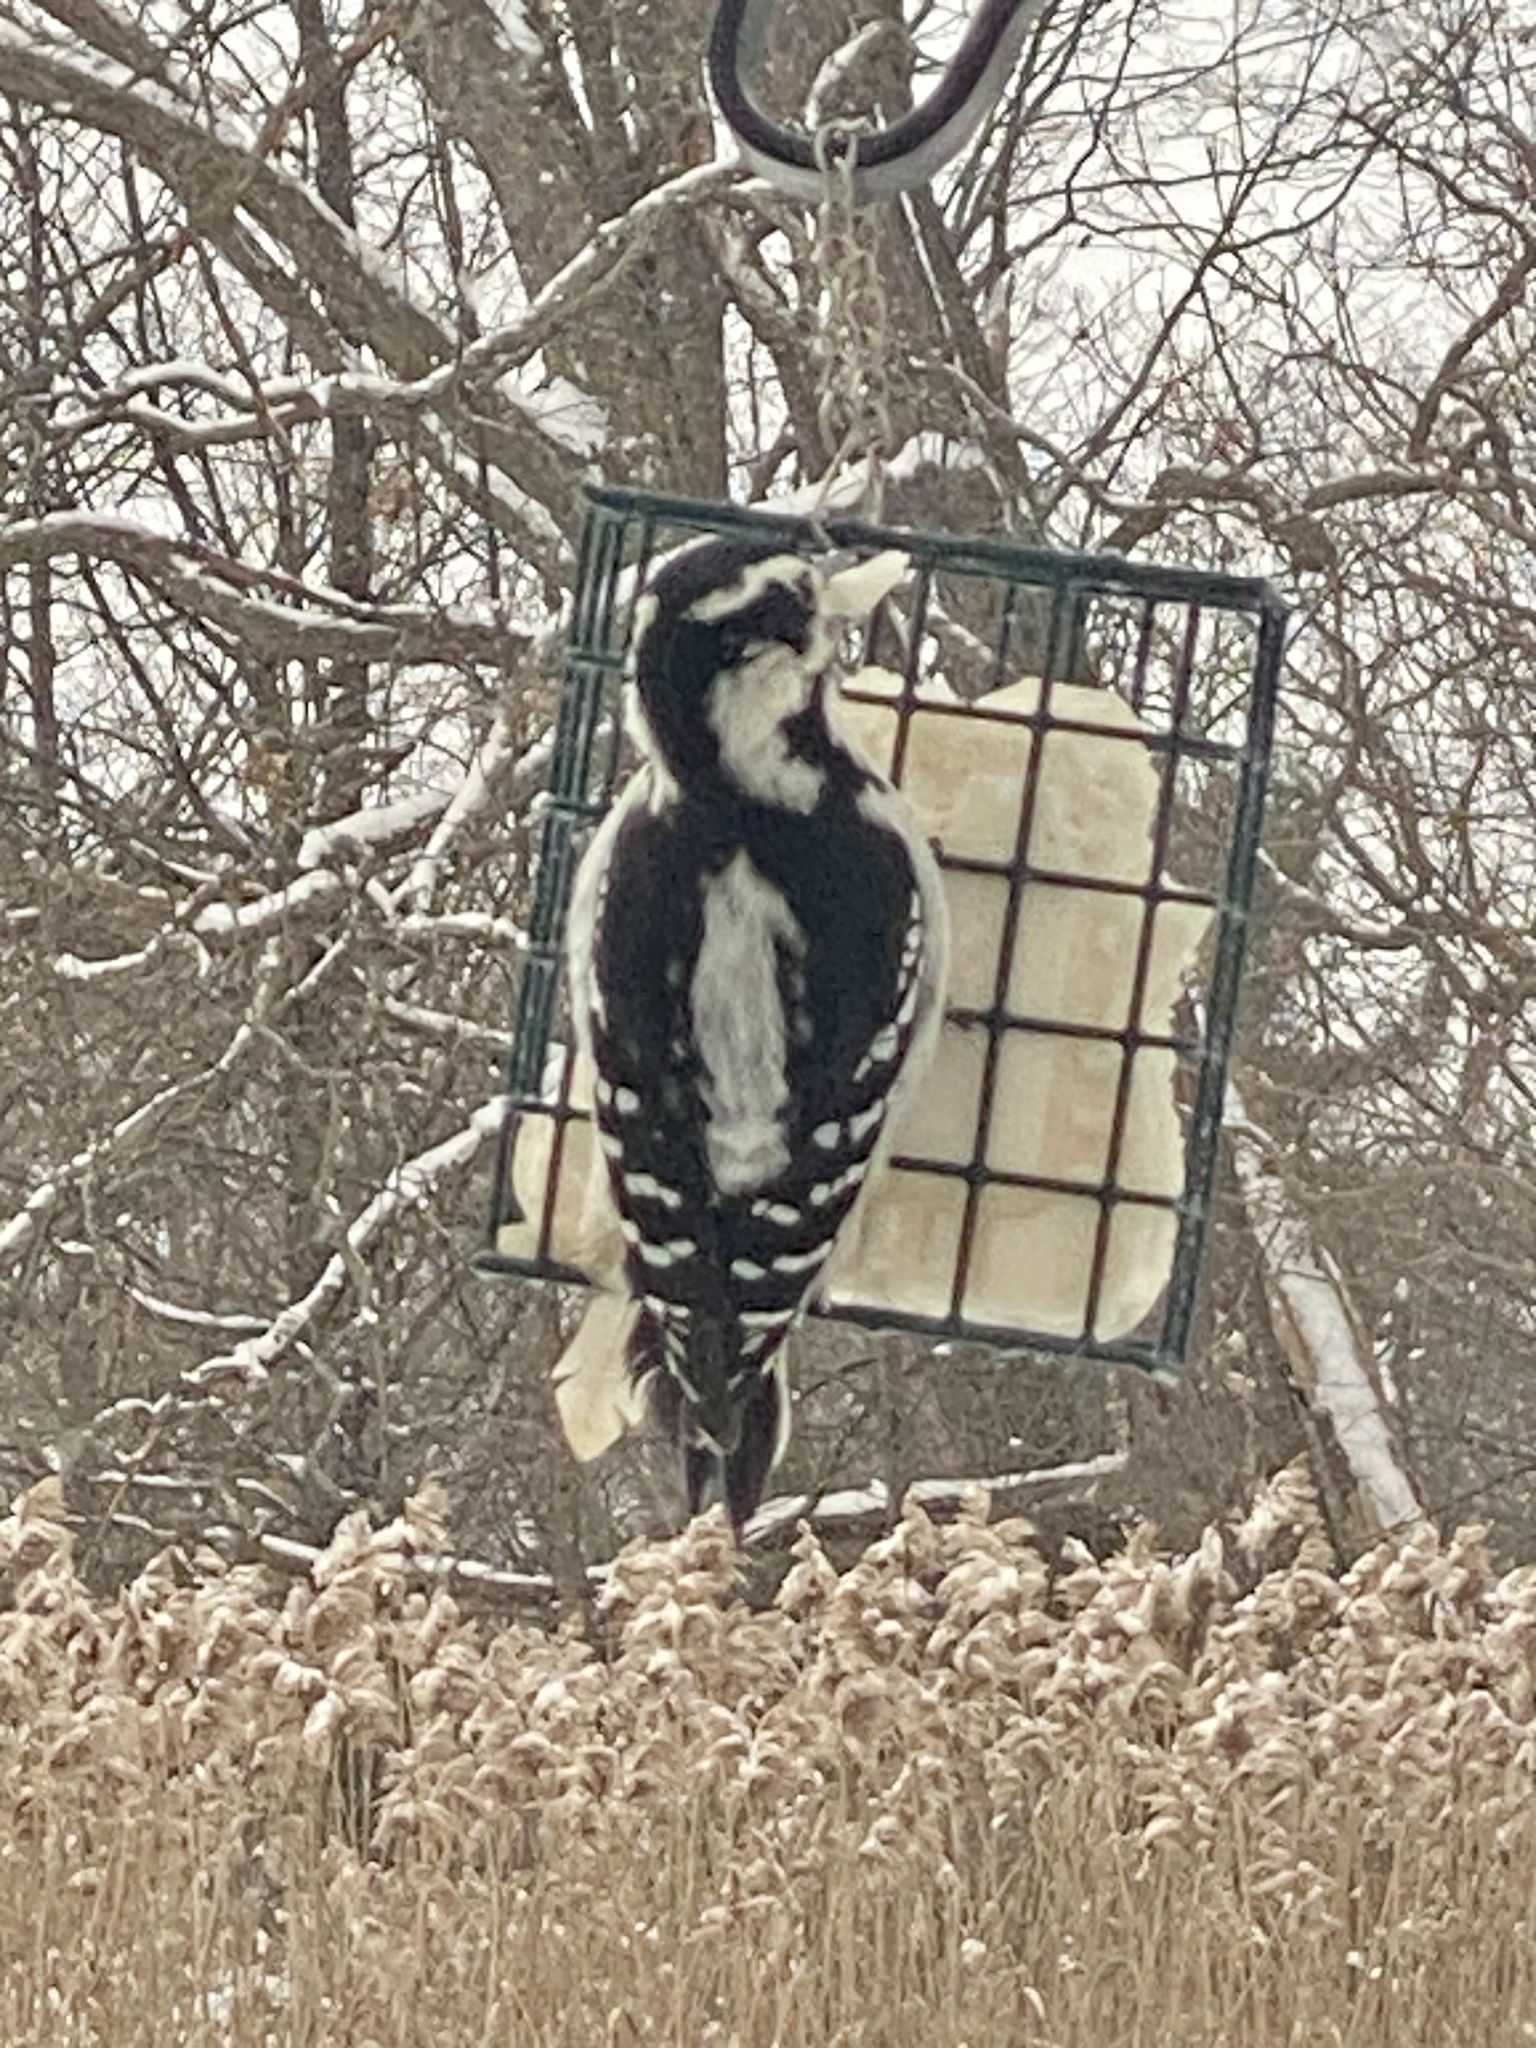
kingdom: Animalia
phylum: Chordata
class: Aves
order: Piciformes
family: Picidae
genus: Leuconotopicus
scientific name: Leuconotopicus villosus
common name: Hairy woodpecker
